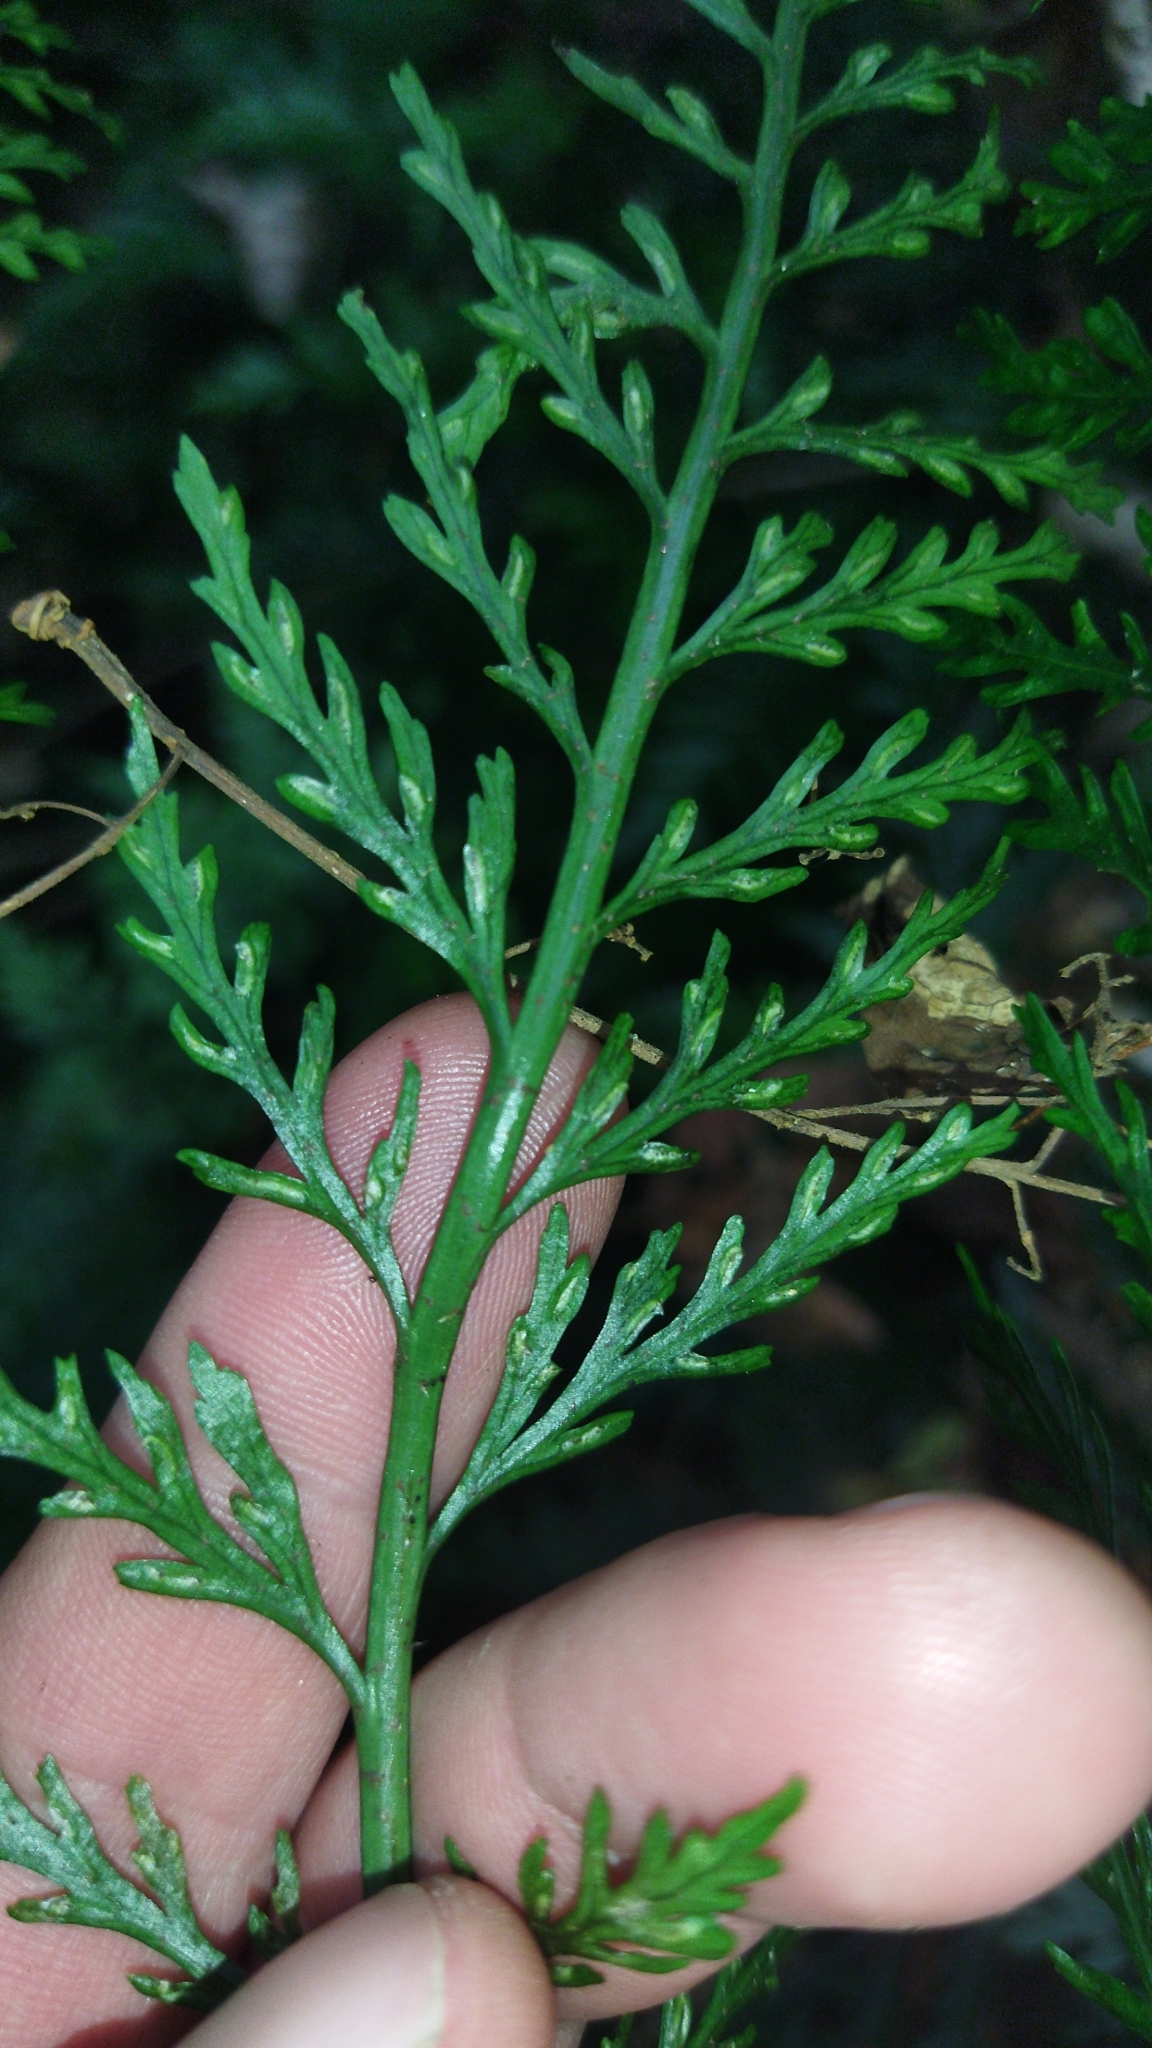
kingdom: Plantae
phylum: Tracheophyta
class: Polypodiopsida
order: Polypodiales
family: Aspleniaceae
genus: Asplenium
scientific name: Asplenium
